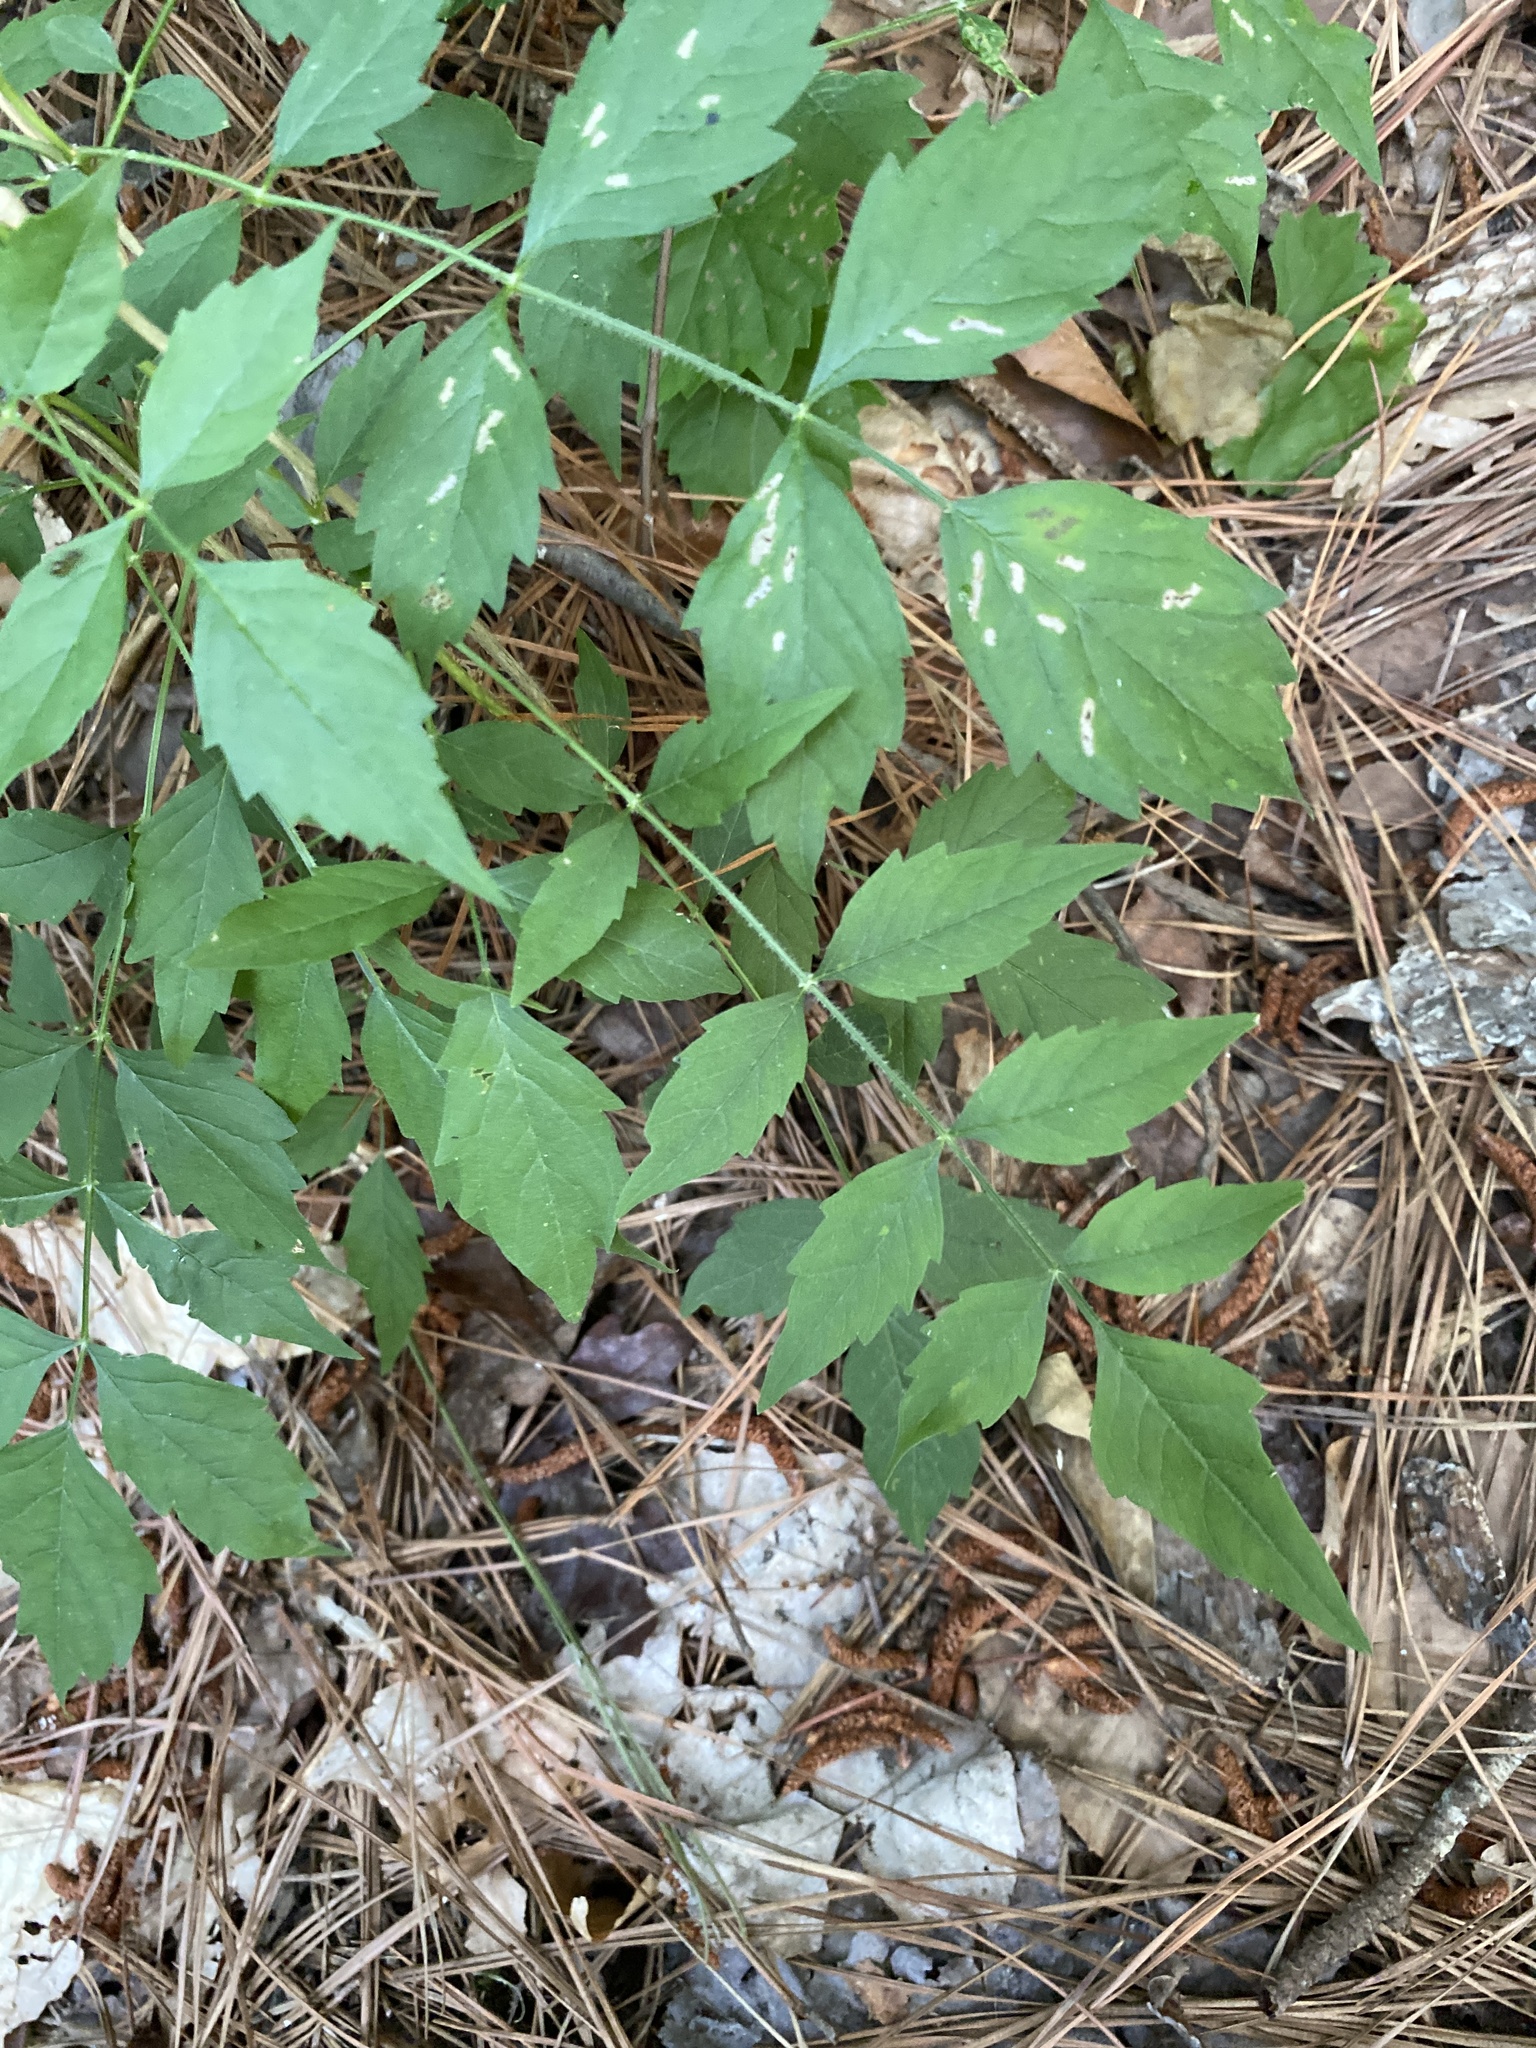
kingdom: Plantae
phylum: Tracheophyta
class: Magnoliopsida
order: Lamiales
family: Bignoniaceae
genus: Campsis
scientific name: Campsis radicans
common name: Trumpet-creeper
